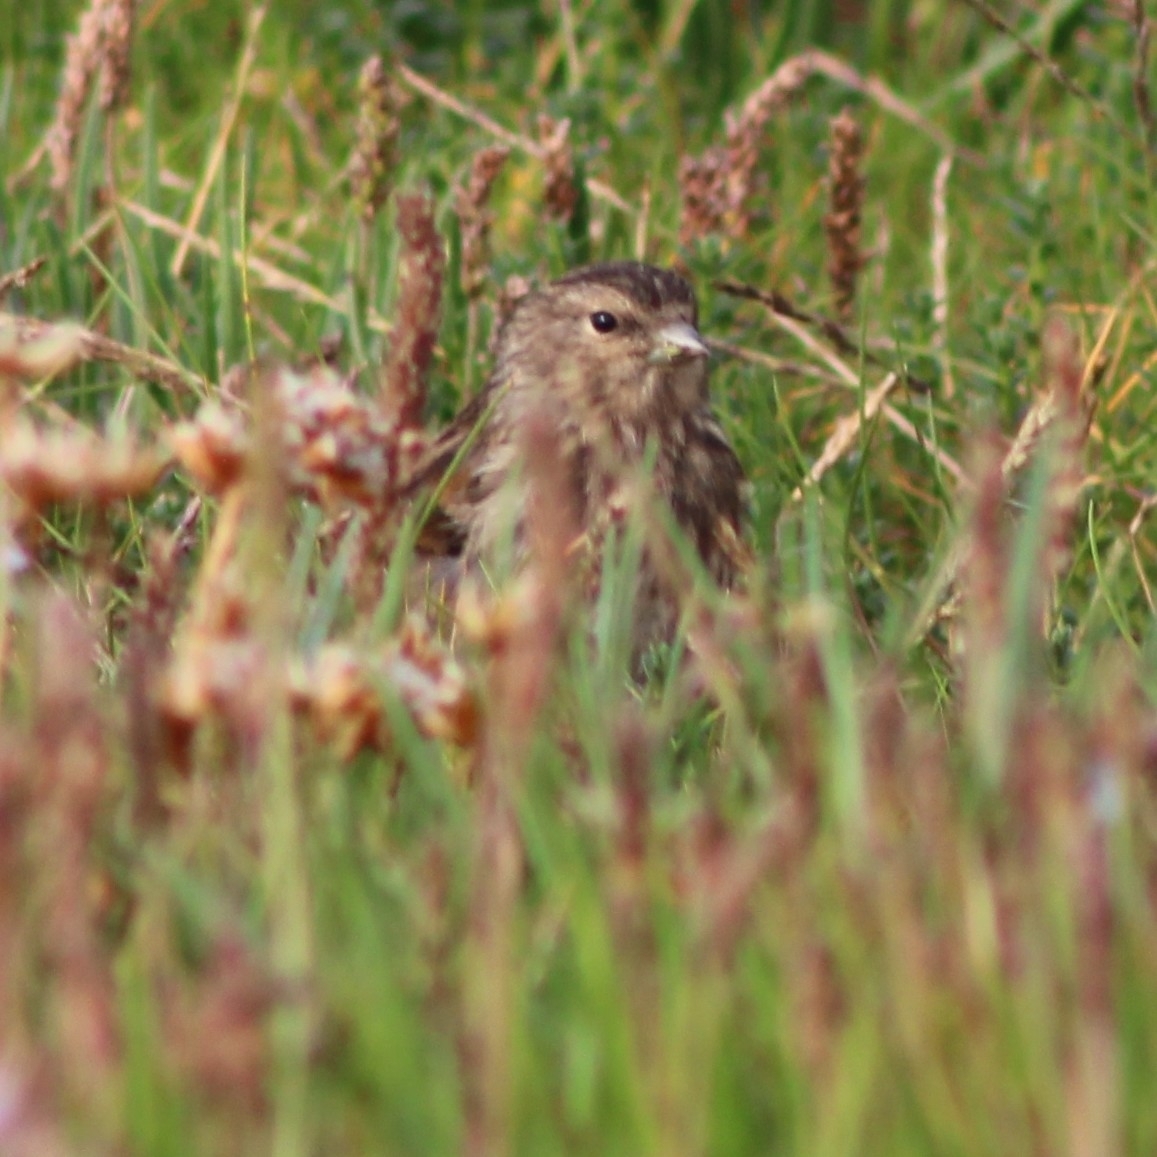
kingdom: Animalia
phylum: Chordata
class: Aves
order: Passeriformes
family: Fringillidae
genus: Linaria
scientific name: Linaria flavirostris
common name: Twite
